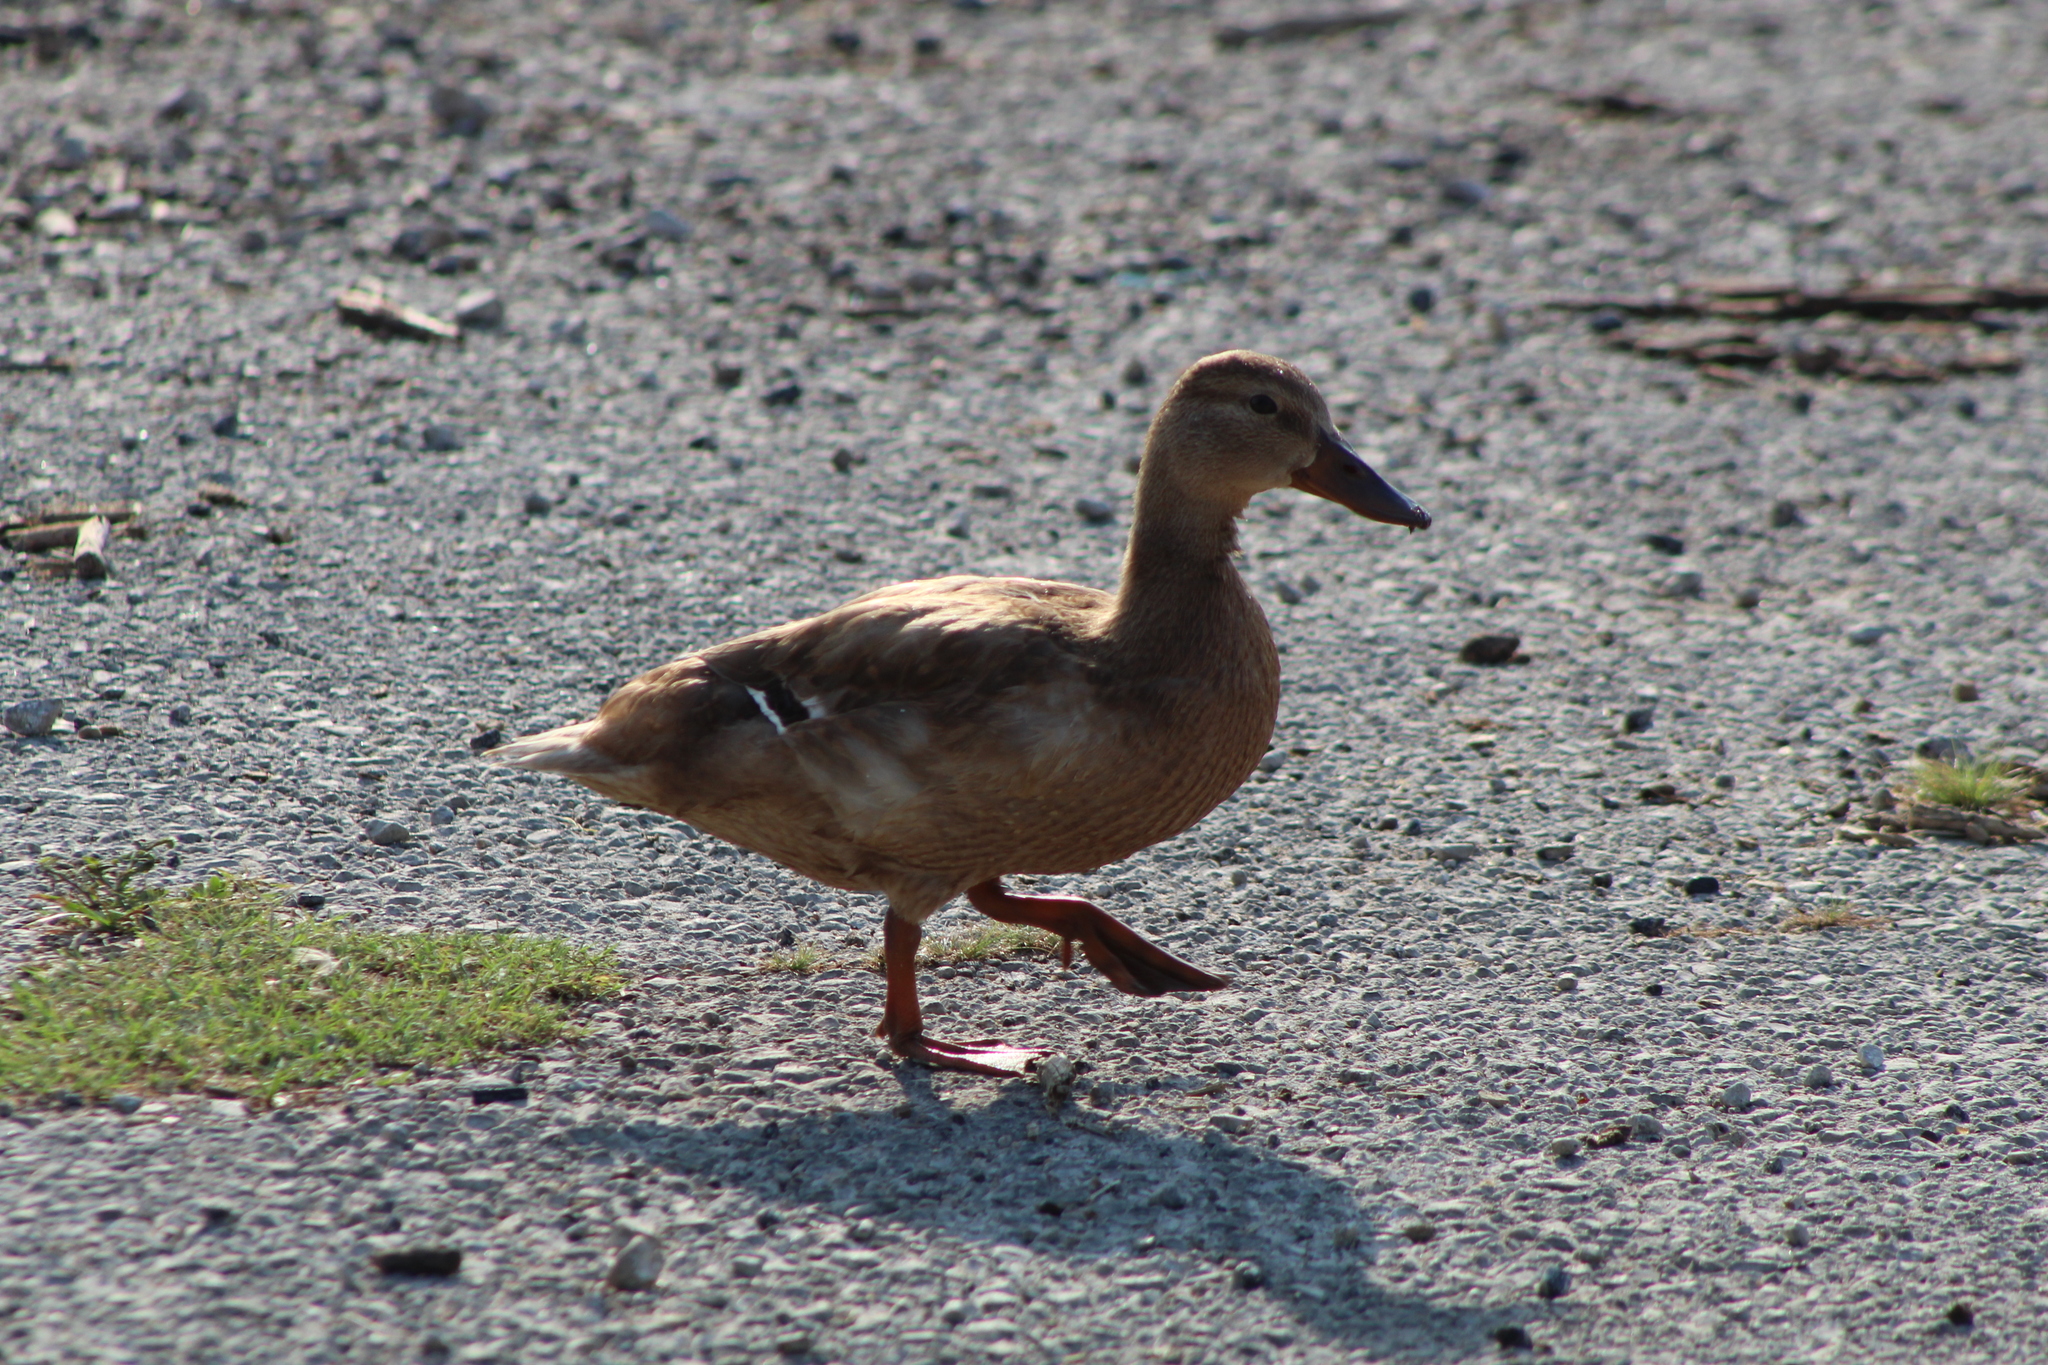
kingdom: Animalia
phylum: Chordata
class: Aves
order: Anseriformes
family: Anatidae
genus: Anas
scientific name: Anas platyrhynchos
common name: Mallard
